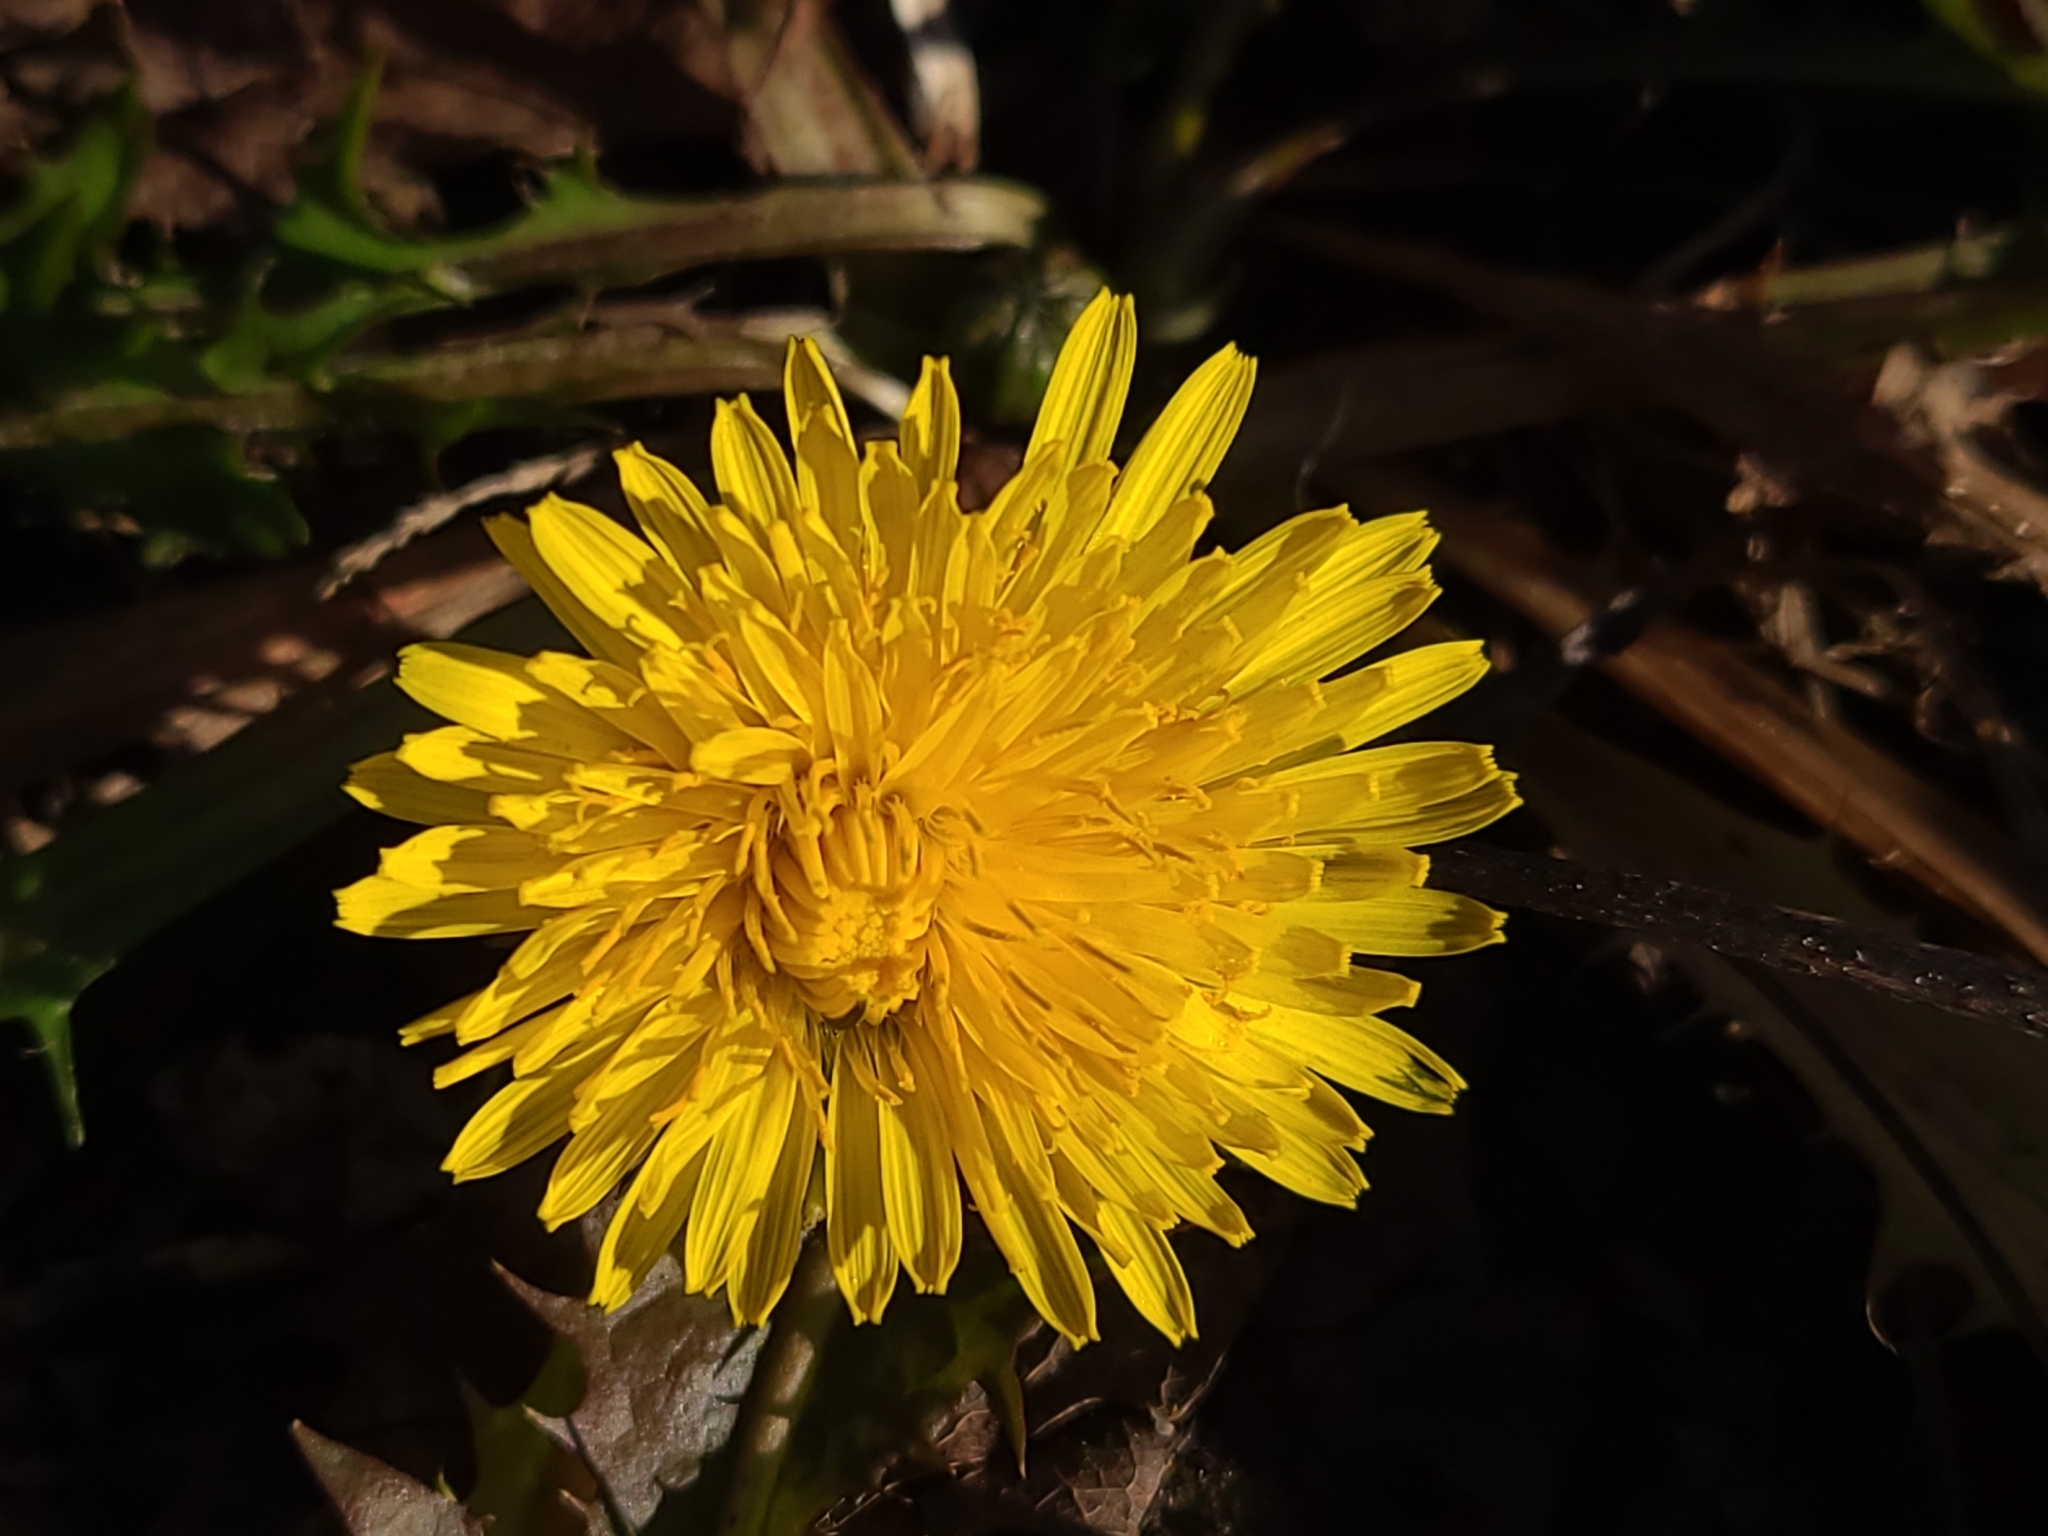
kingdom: Plantae
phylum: Tracheophyta
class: Magnoliopsida
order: Asterales
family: Asteraceae
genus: Taraxacum
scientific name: Taraxacum officinale
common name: Common dandelion
